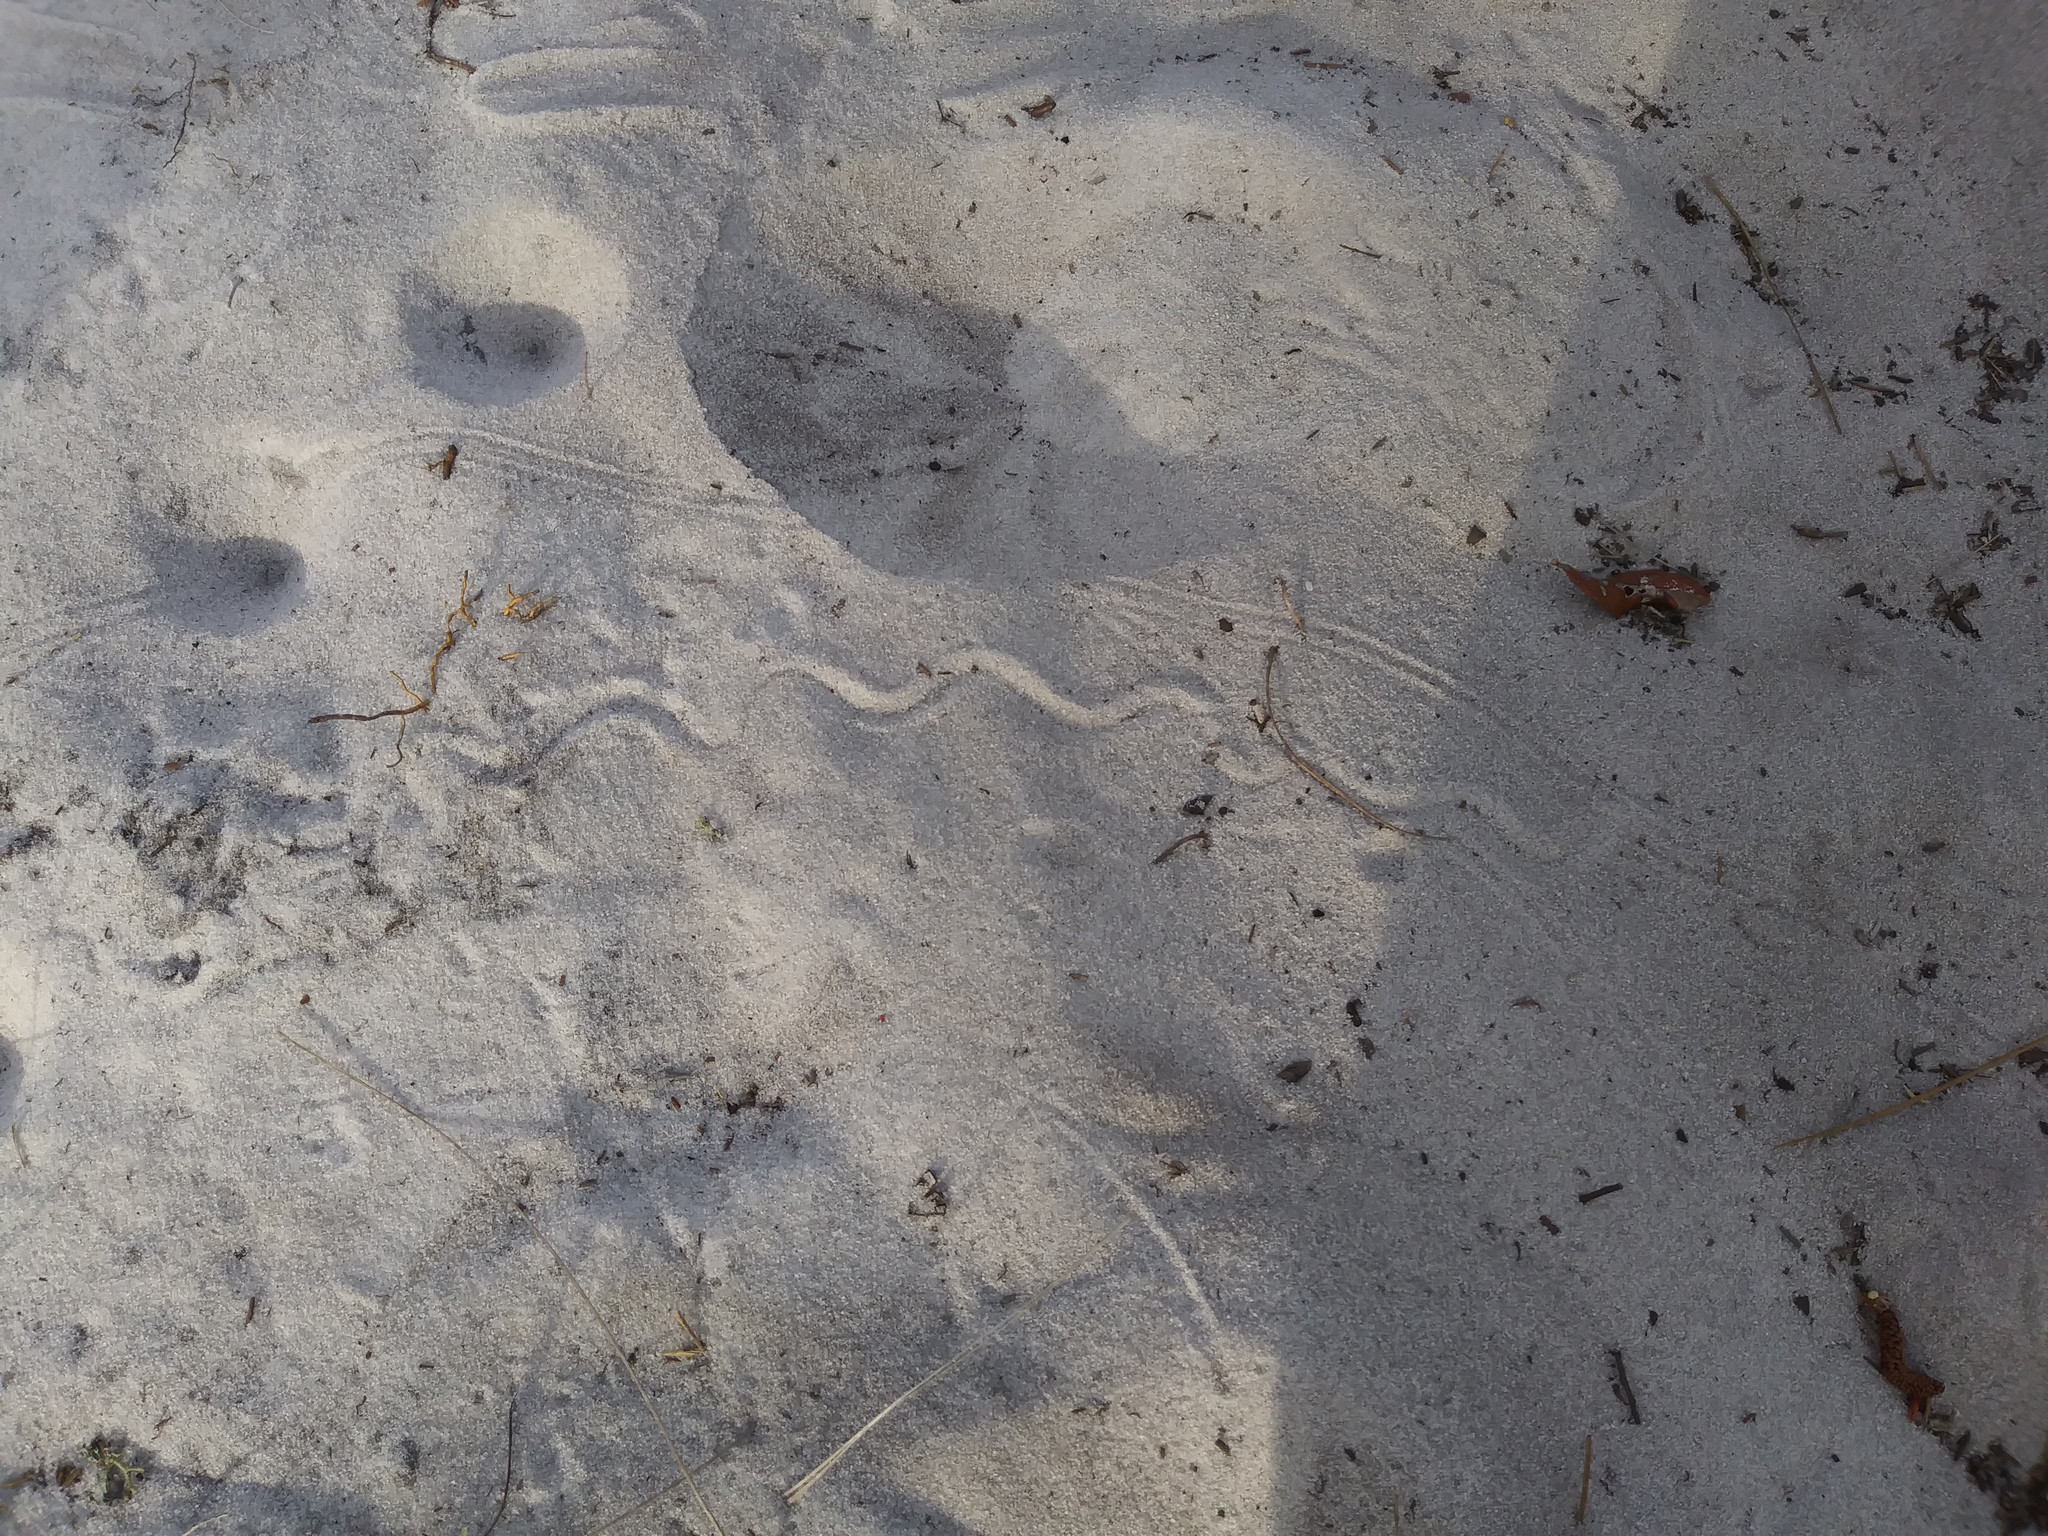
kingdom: Animalia
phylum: Chordata
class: Squamata
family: Scincidae
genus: Plestiodon
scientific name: Plestiodon reynoldsi
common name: Florida sand skink
